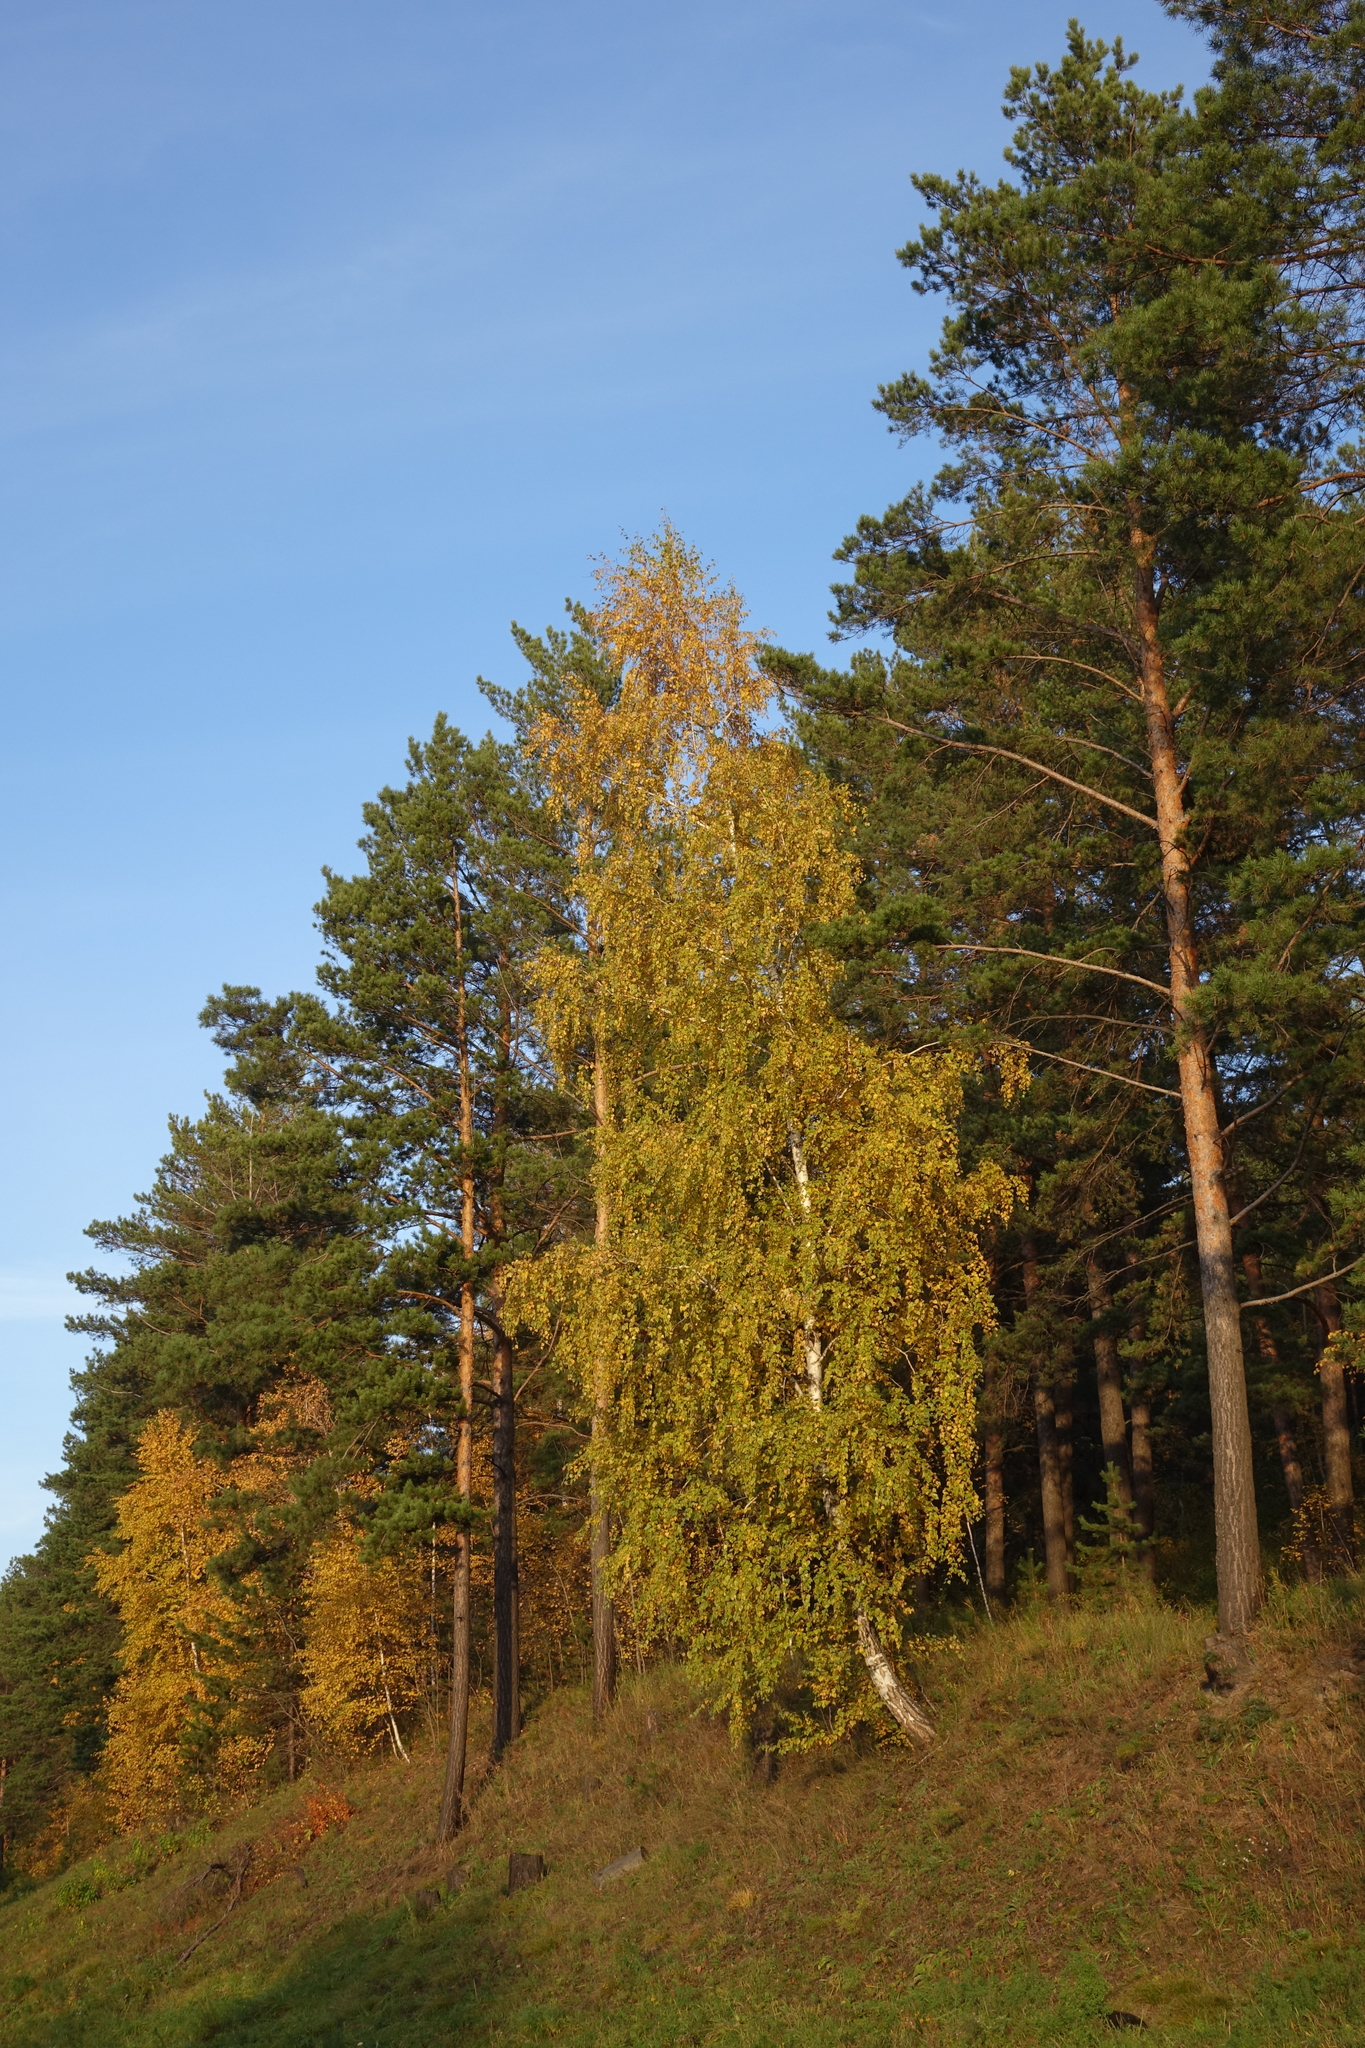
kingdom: Plantae
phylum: Tracheophyta
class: Magnoliopsida
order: Fagales
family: Betulaceae
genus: Betula
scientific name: Betula pendula
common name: Silver birch
